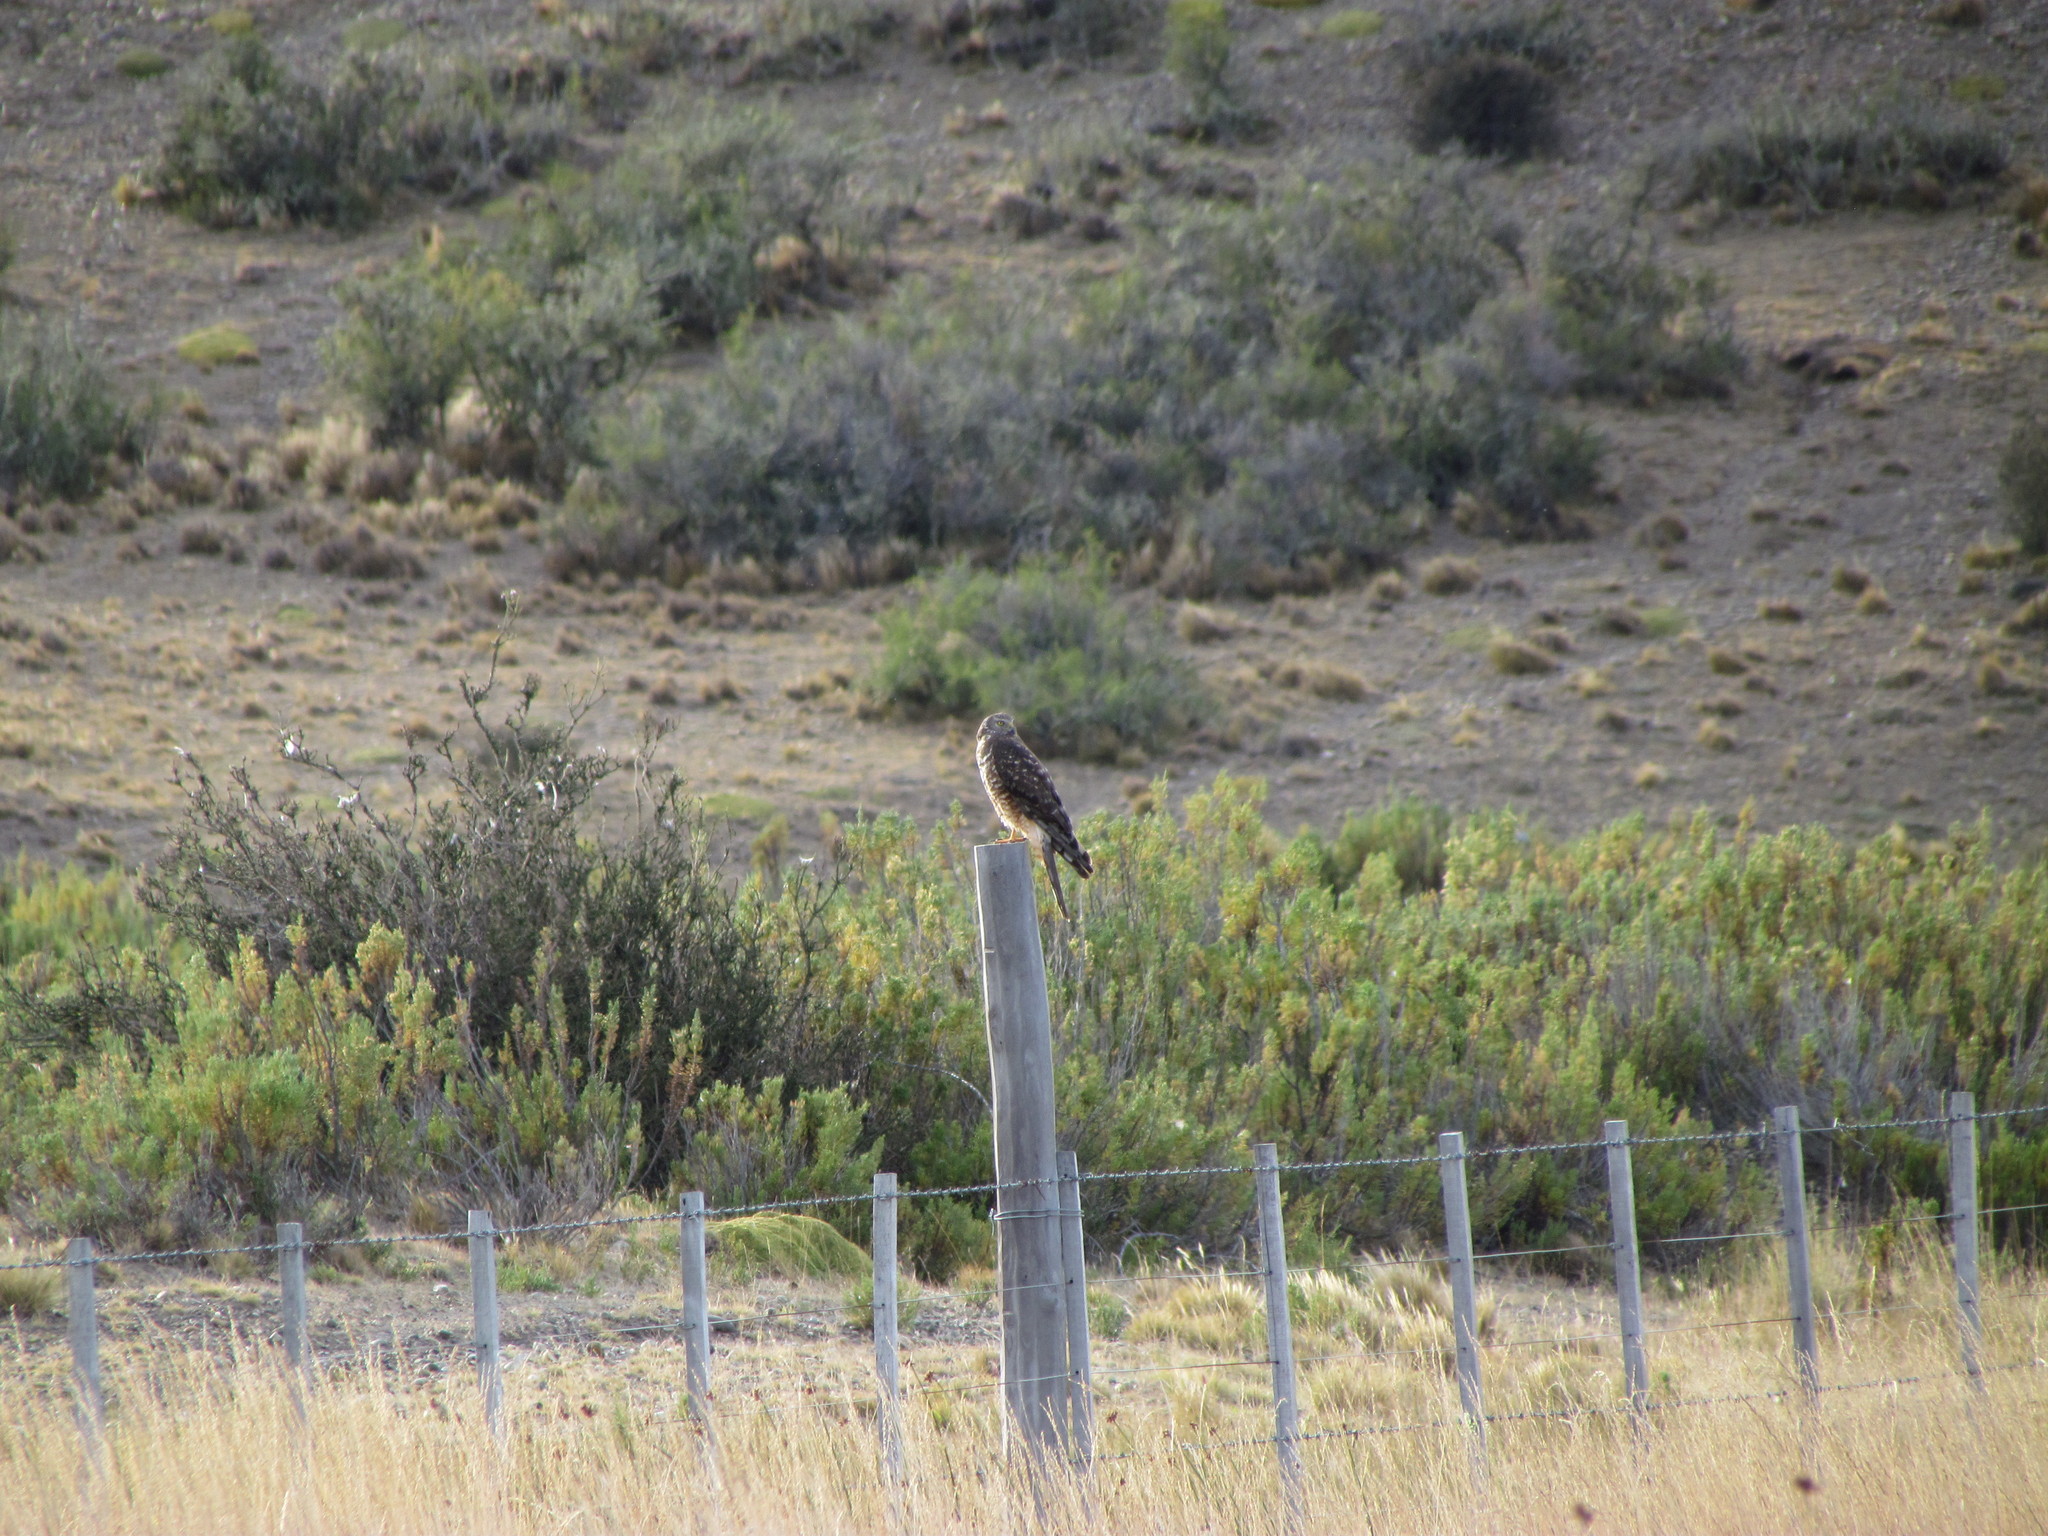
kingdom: Animalia
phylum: Chordata
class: Aves
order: Accipitriformes
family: Accipitridae
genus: Circus
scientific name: Circus cinereus
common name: Cinereous harrier
